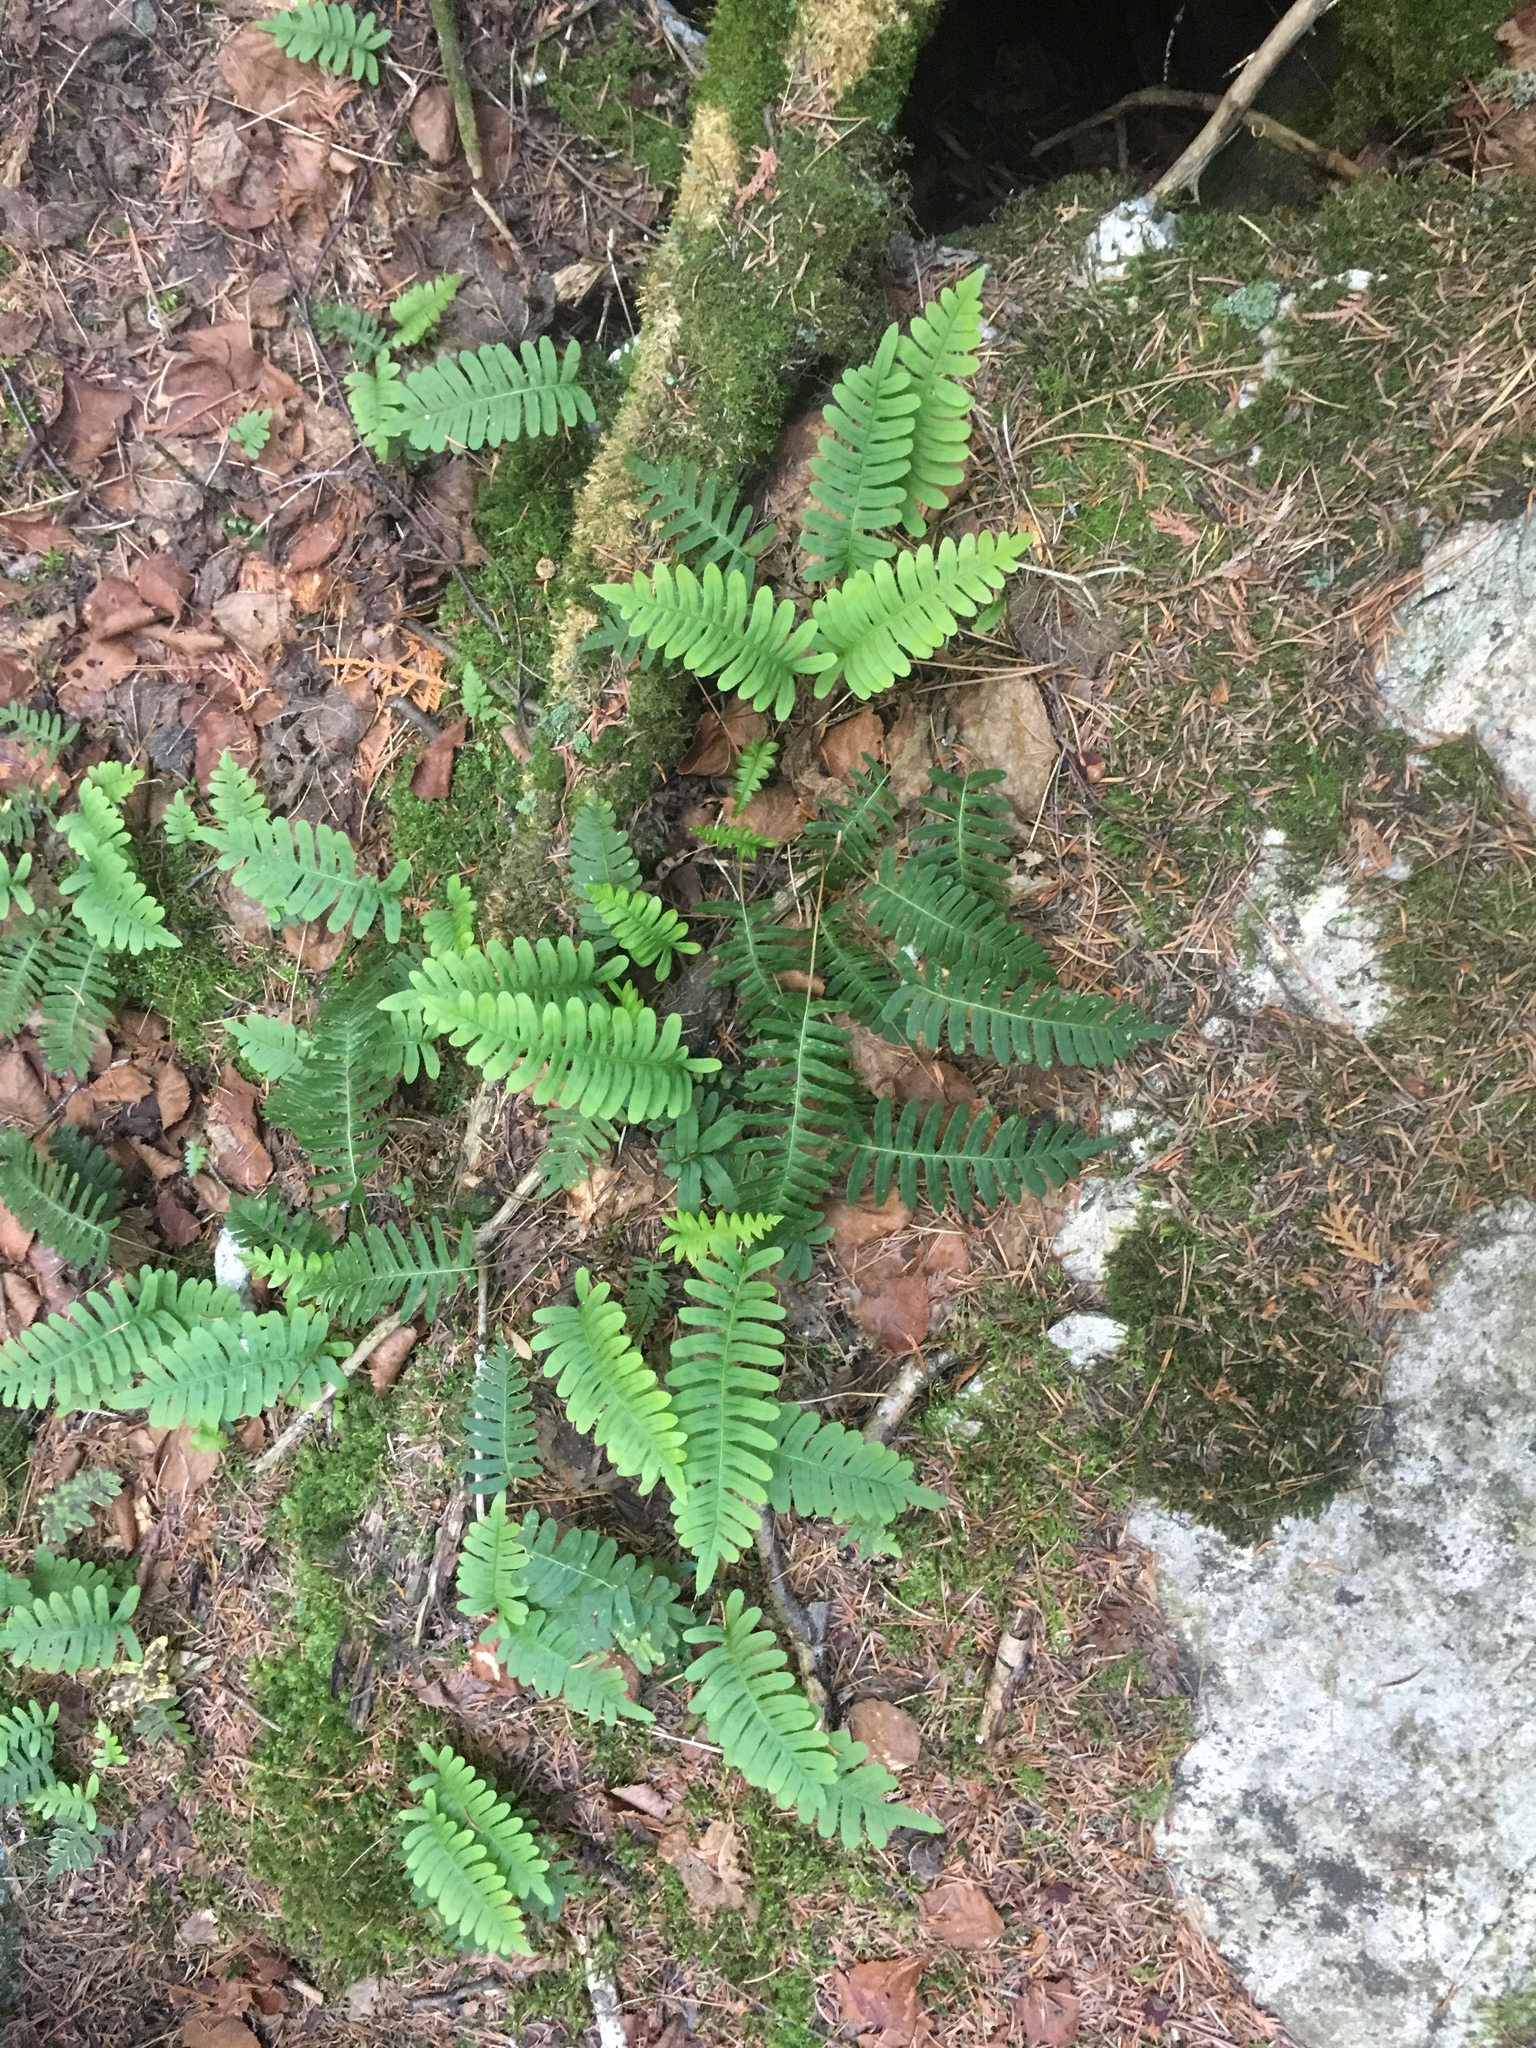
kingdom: Plantae
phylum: Tracheophyta
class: Polypodiopsida
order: Polypodiales
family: Polypodiaceae
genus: Polypodium
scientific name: Polypodium virginianum
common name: American wall fern
